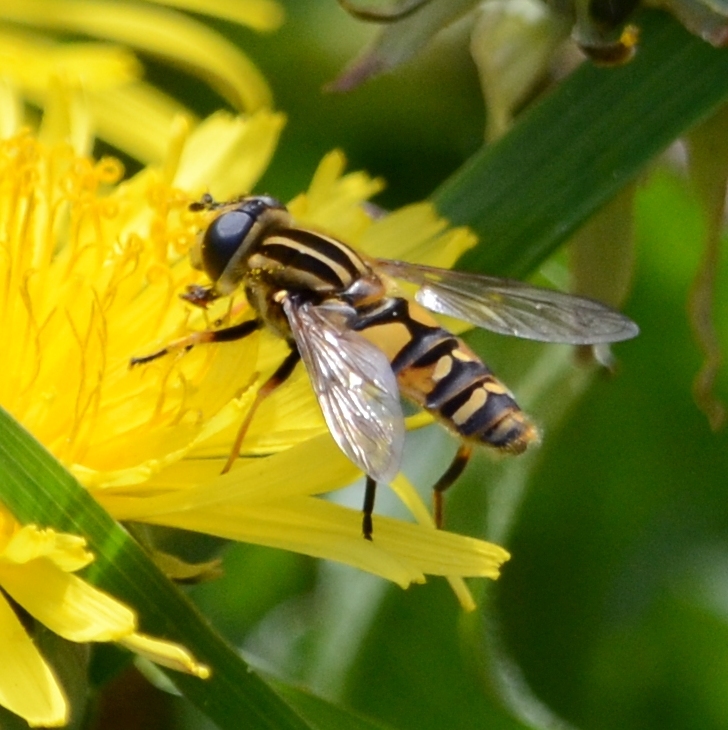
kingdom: Animalia
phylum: Arthropoda
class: Insecta
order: Diptera
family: Syrphidae
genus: Helophilus
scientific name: Helophilus pendulus
